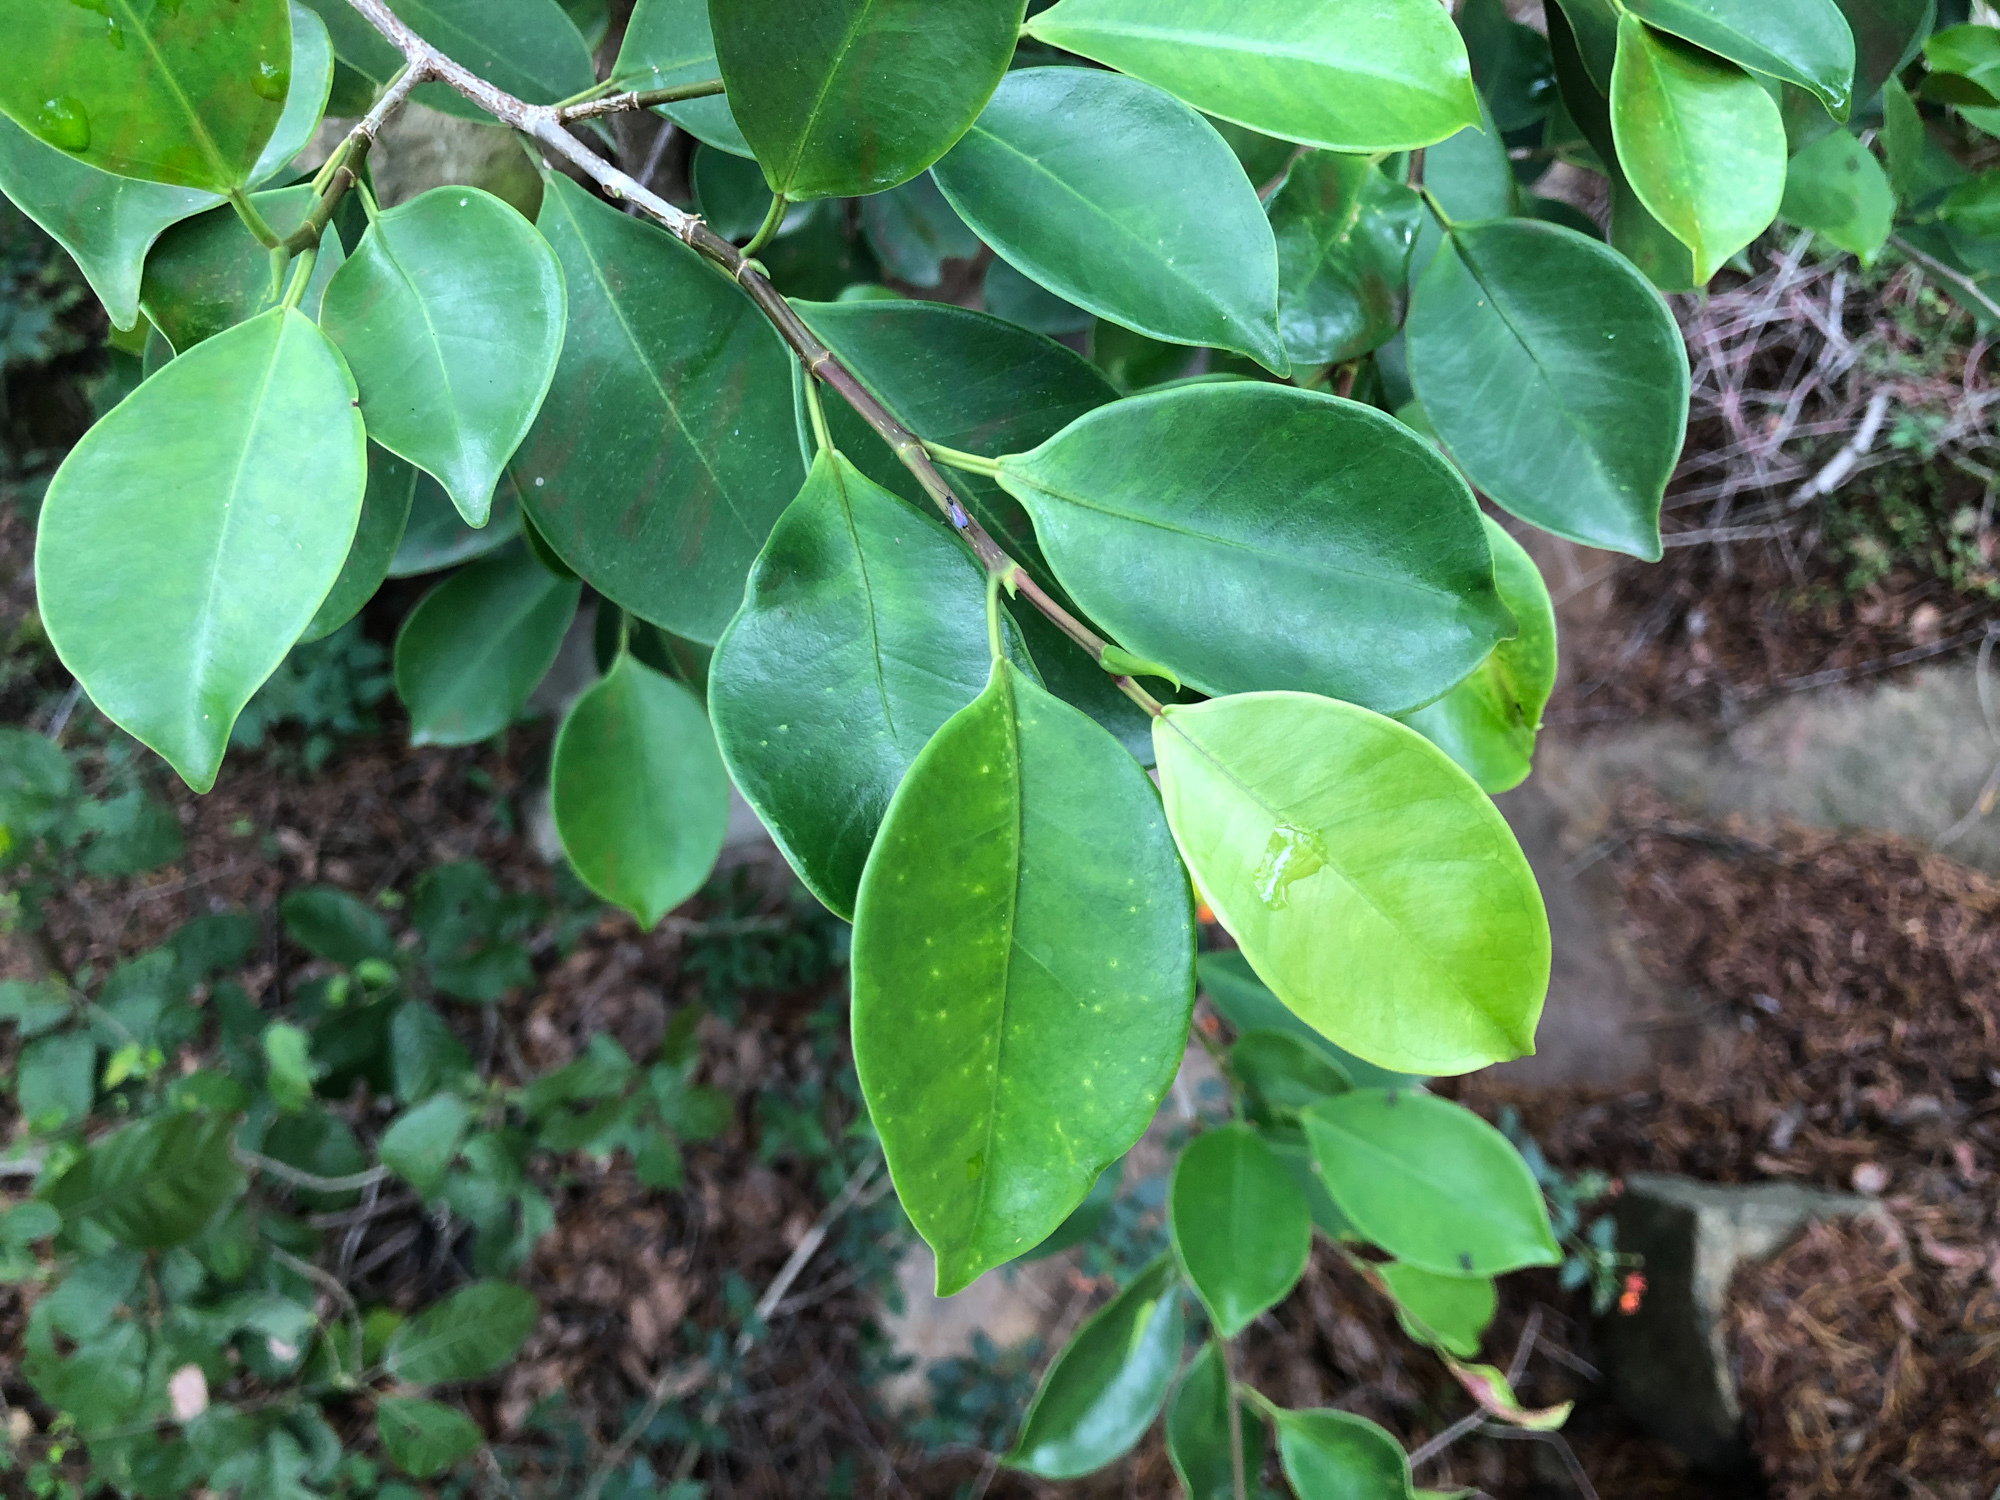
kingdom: Plantae
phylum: Tracheophyta
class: Magnoliopsida
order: Rosales
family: Moraceae
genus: Ficus
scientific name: Ficus microcarpa
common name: Chinese banyan
